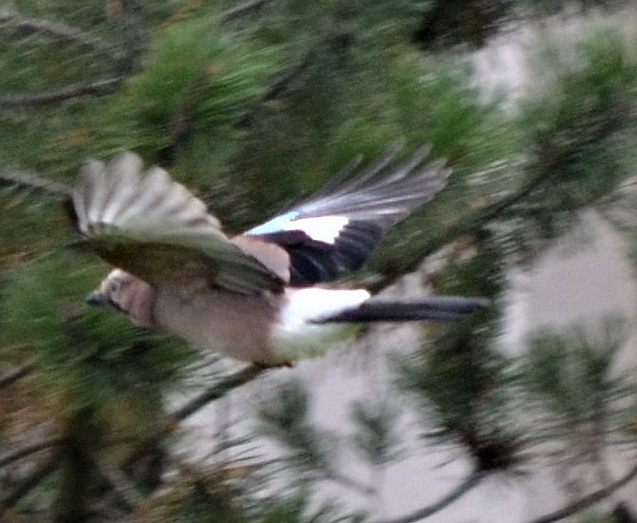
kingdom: Animalia
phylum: Chordata
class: Aves
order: Passeriformes
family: Corvidae
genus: Garrulus
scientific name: Garrulus glandarius
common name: Eurasian jay
